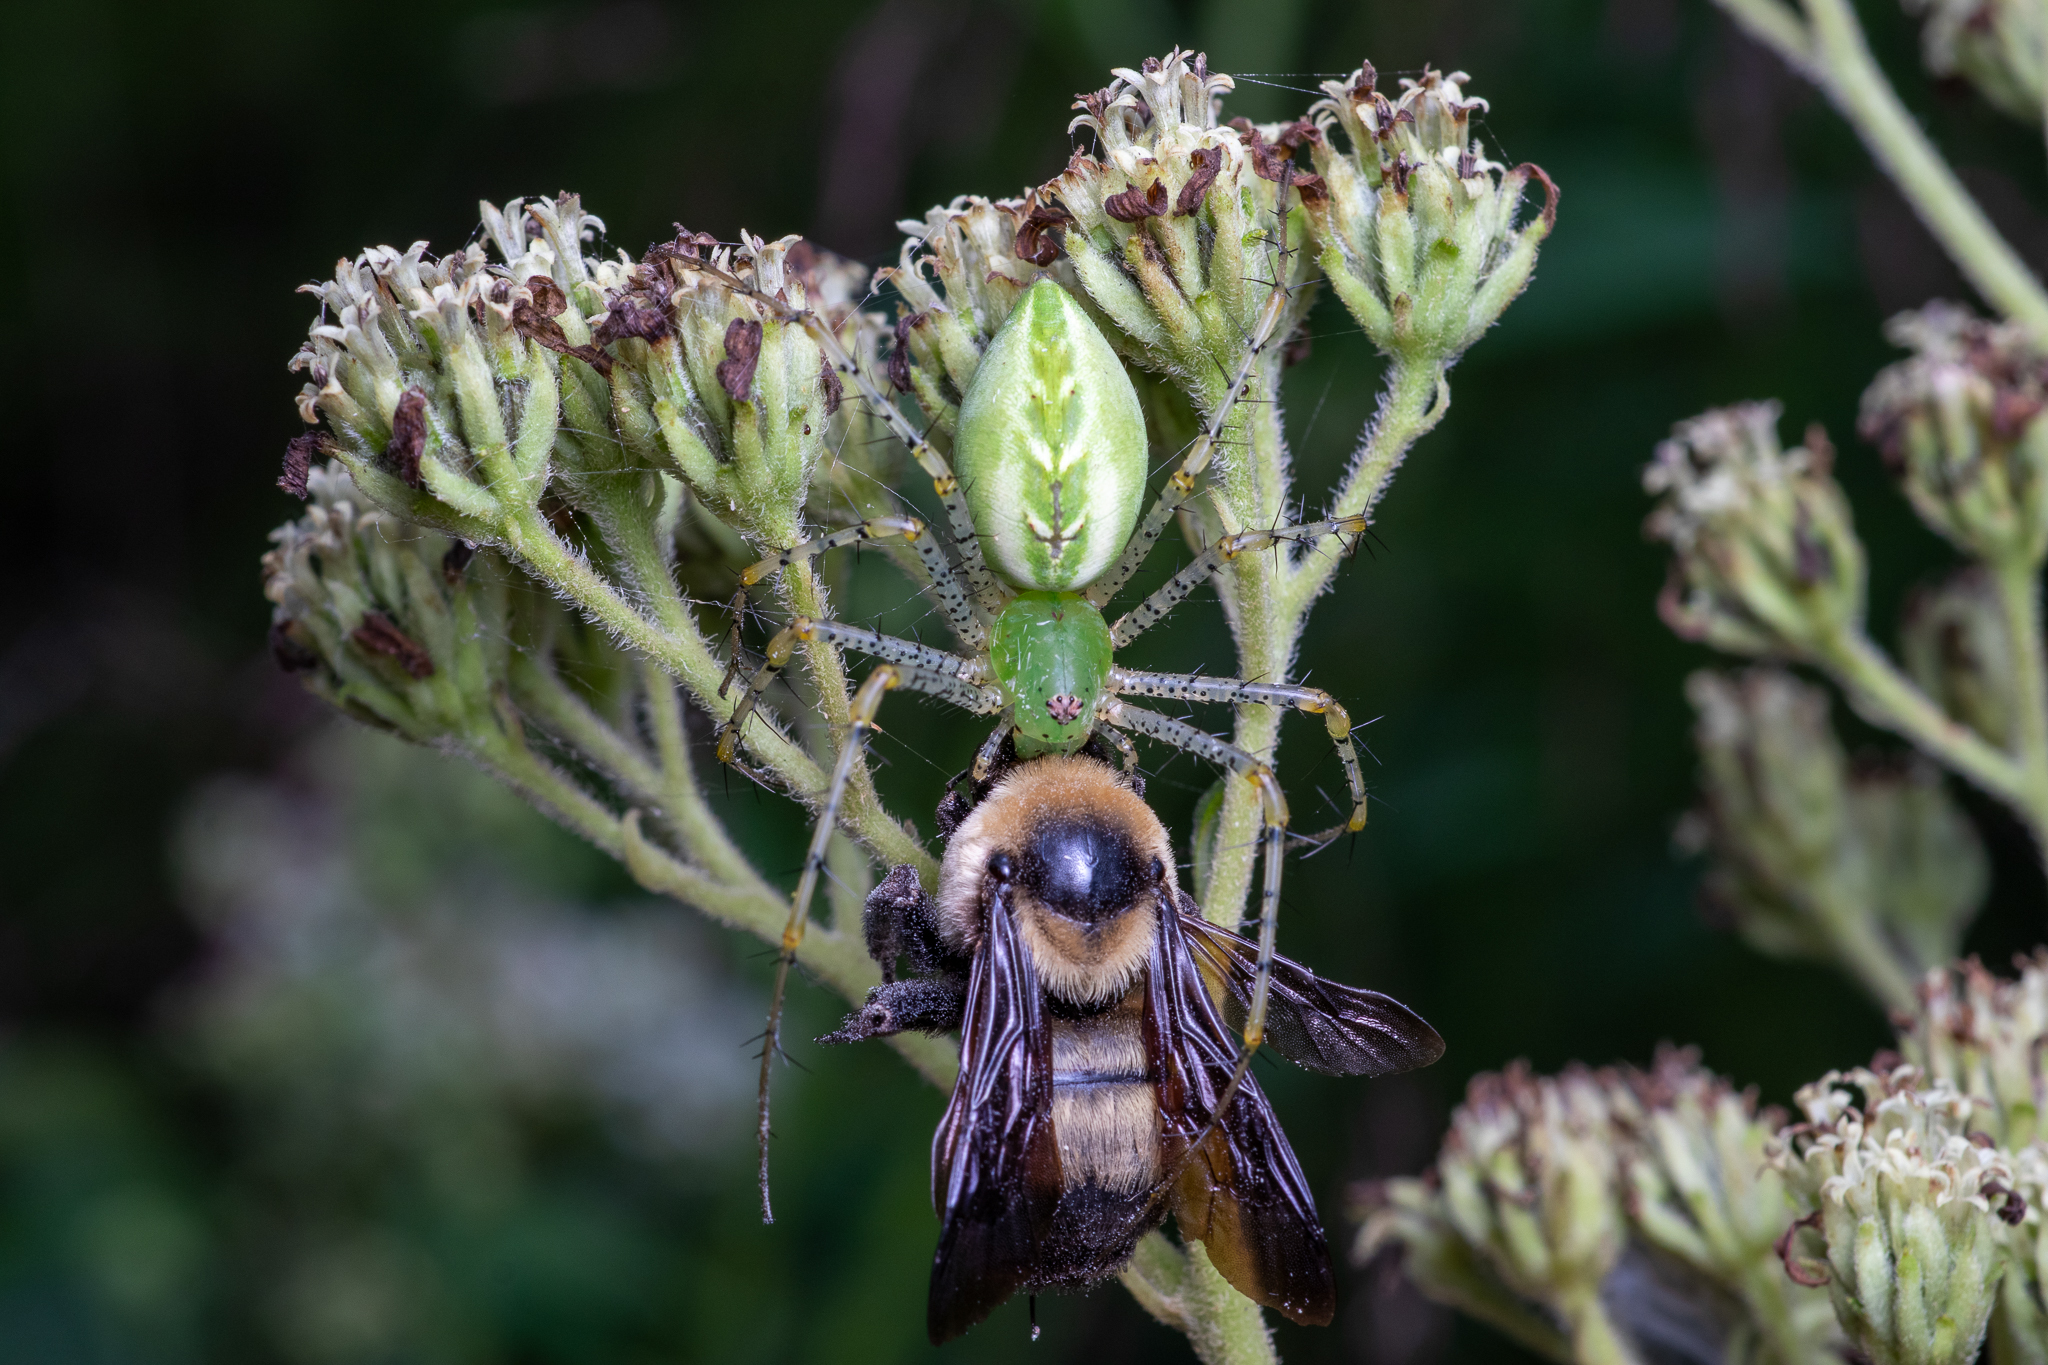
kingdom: Animalia
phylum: Arthropoda
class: Arachnida
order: Araneae
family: Oxyopidae
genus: Peucetia
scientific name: Peucetia viridans
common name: Lynx spiders
